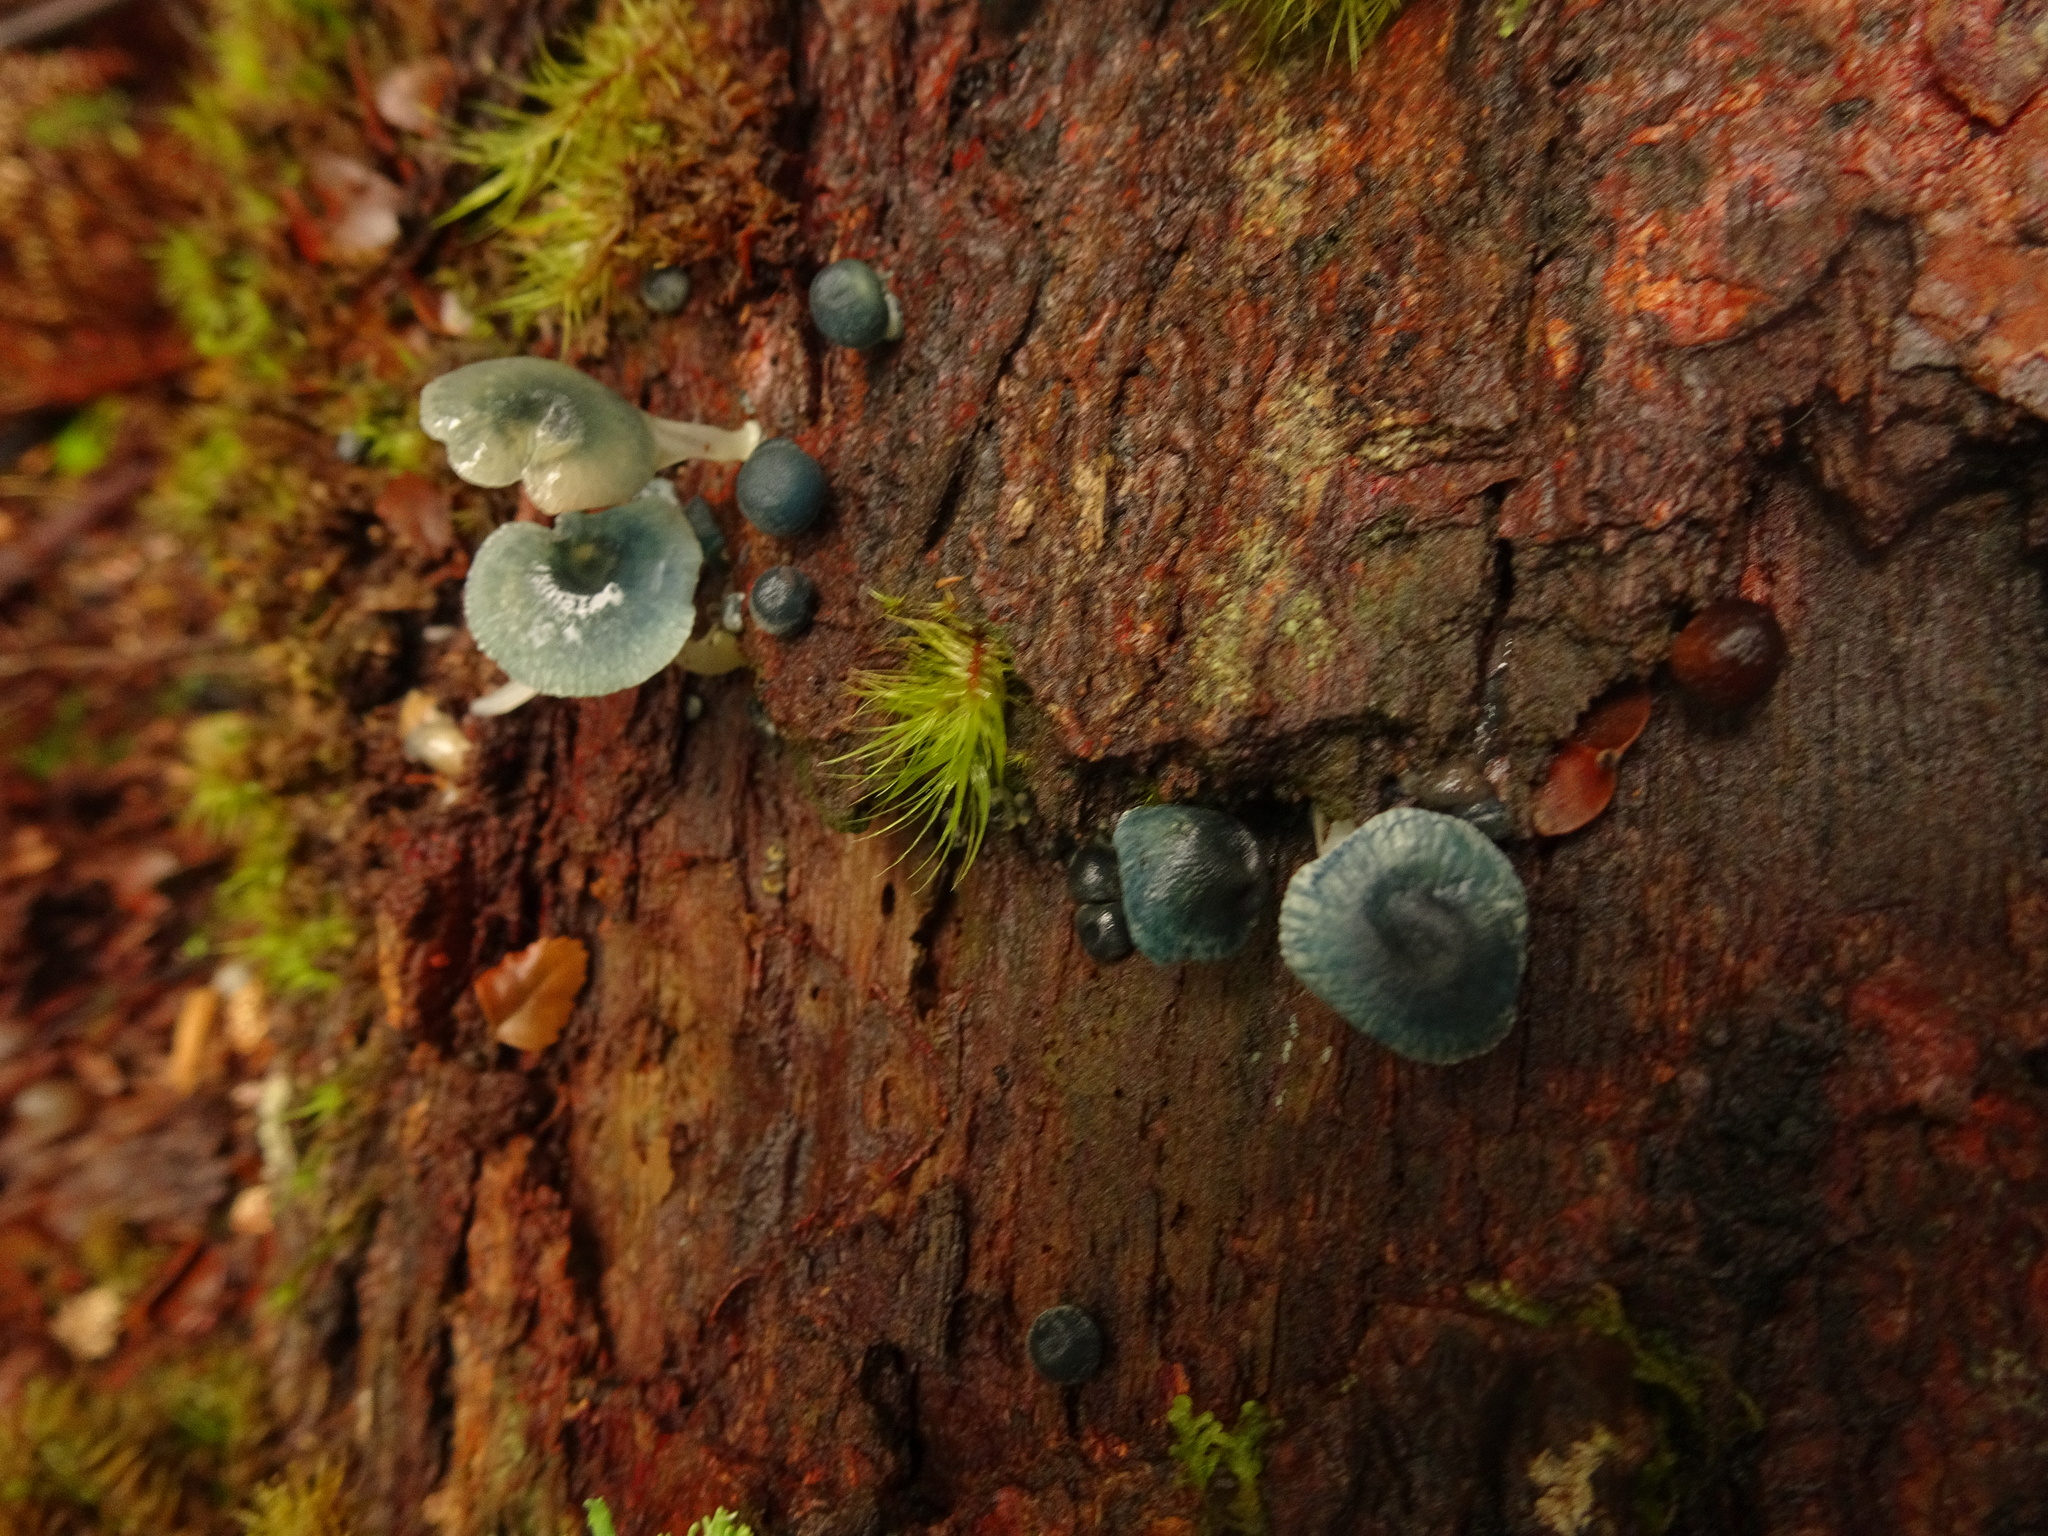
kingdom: Fungi
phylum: Basidiomycota
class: Agaricomycetes
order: Agaricales
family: Mycenaceae
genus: Mycena
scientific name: Mycena interrupta
